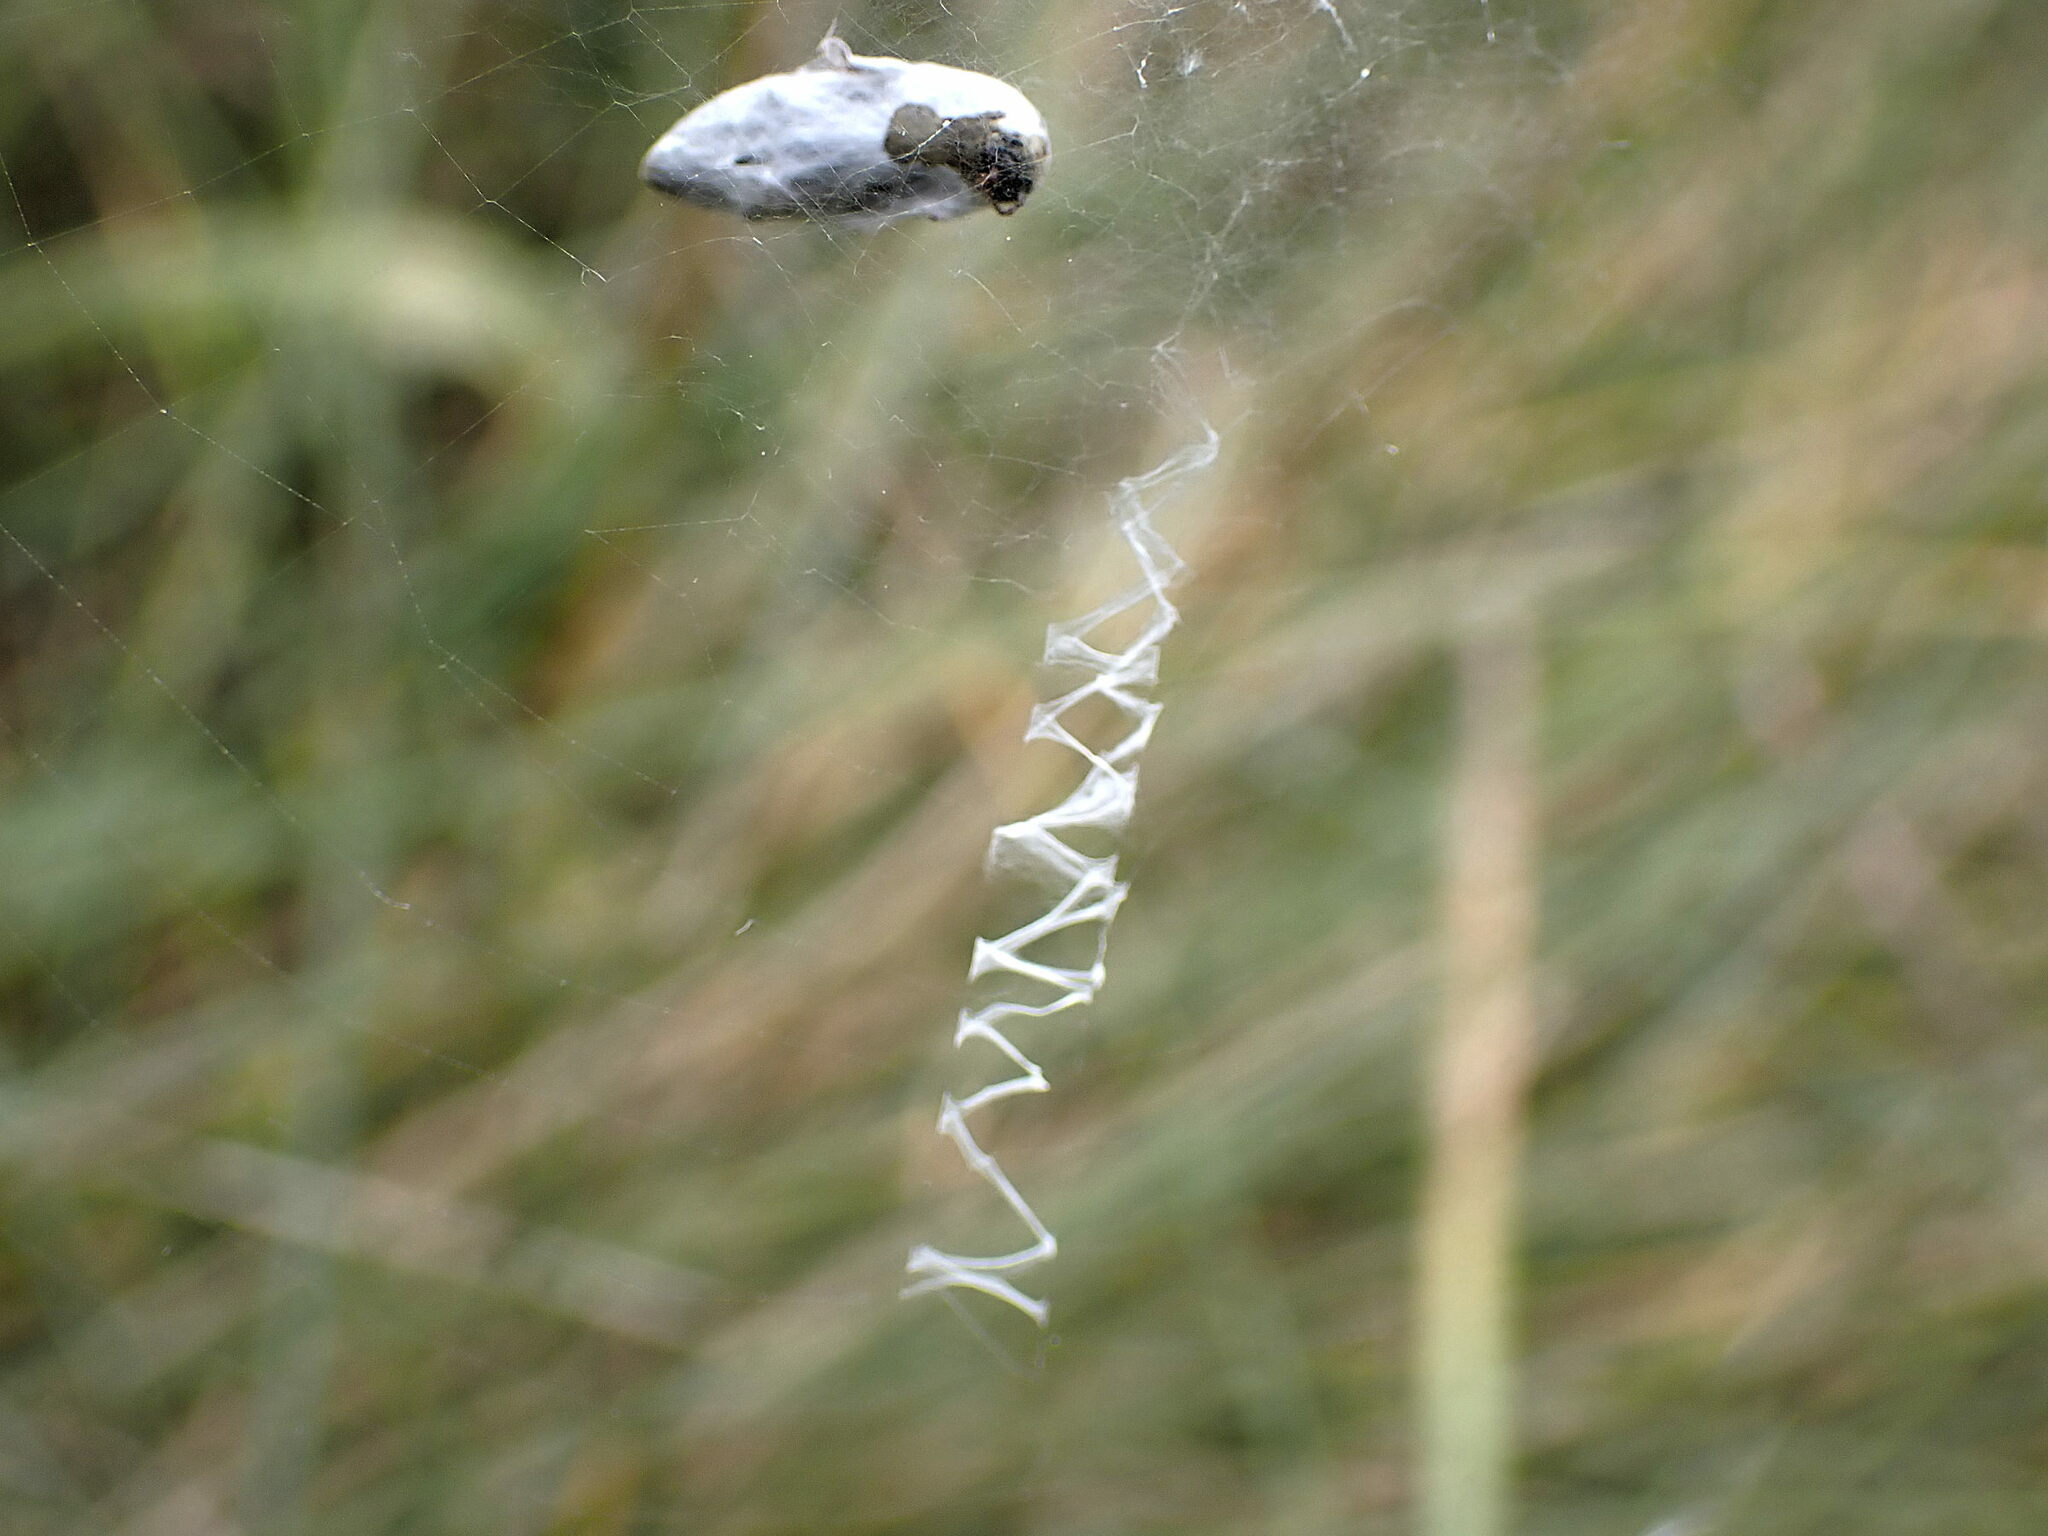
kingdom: Animalia
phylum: Arthropoda
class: Arachnida
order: Araneae
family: Araneidae
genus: Argiope
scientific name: Argiope bruennichi
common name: Wasp spider
